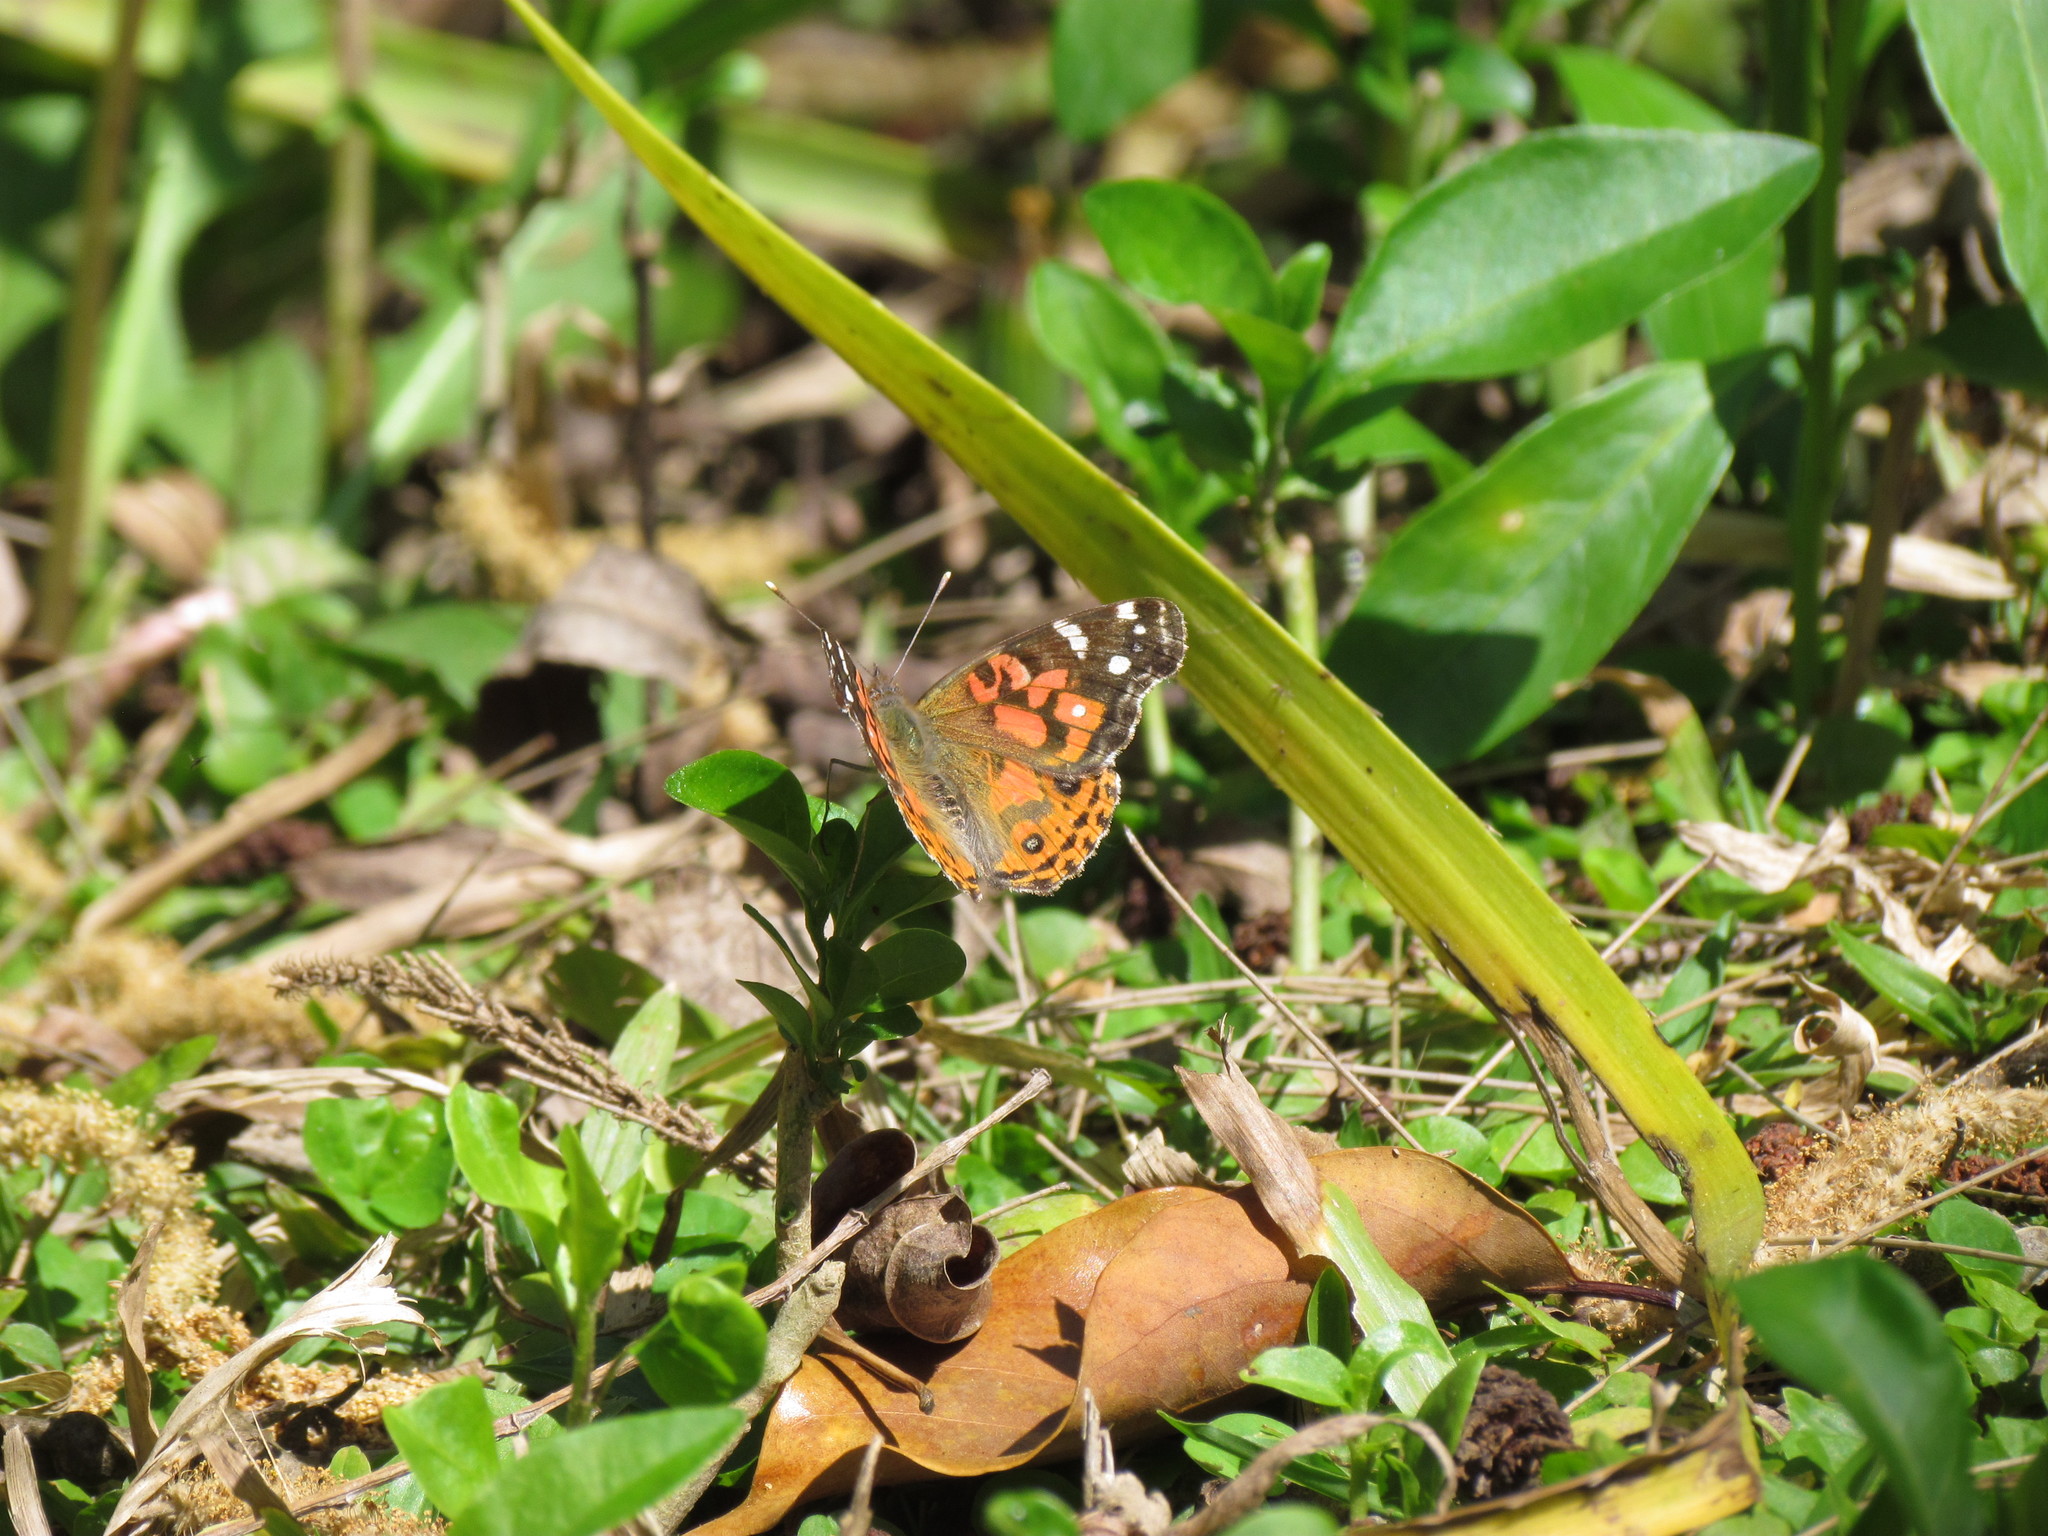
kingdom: Animalia
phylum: Arthropoda
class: Insecta
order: Lepidoptera
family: Nymphalidae
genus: Vanessa
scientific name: Vanessa braziliensis
